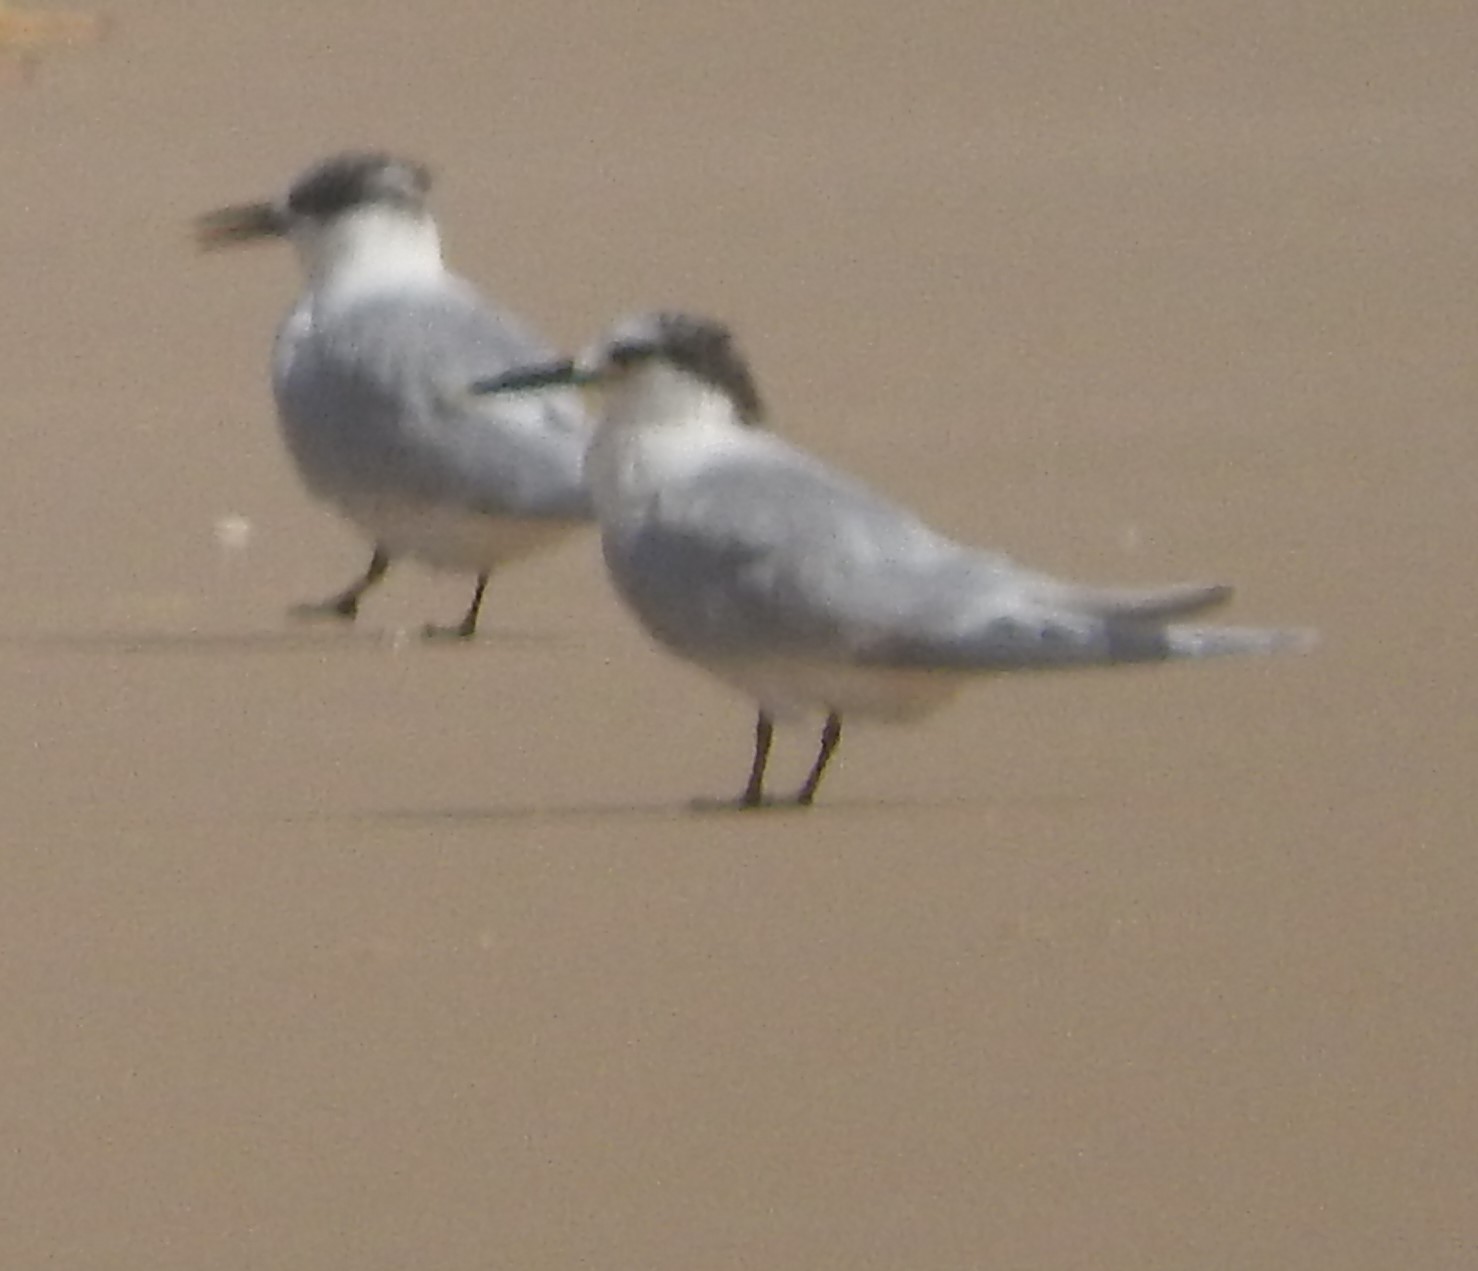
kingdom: Animalia
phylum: Chordata
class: Aves
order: Charadriiformes
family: Laridae
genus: Thalasseus
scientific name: Thalasseus sandvicensis
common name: Sandwich tern
